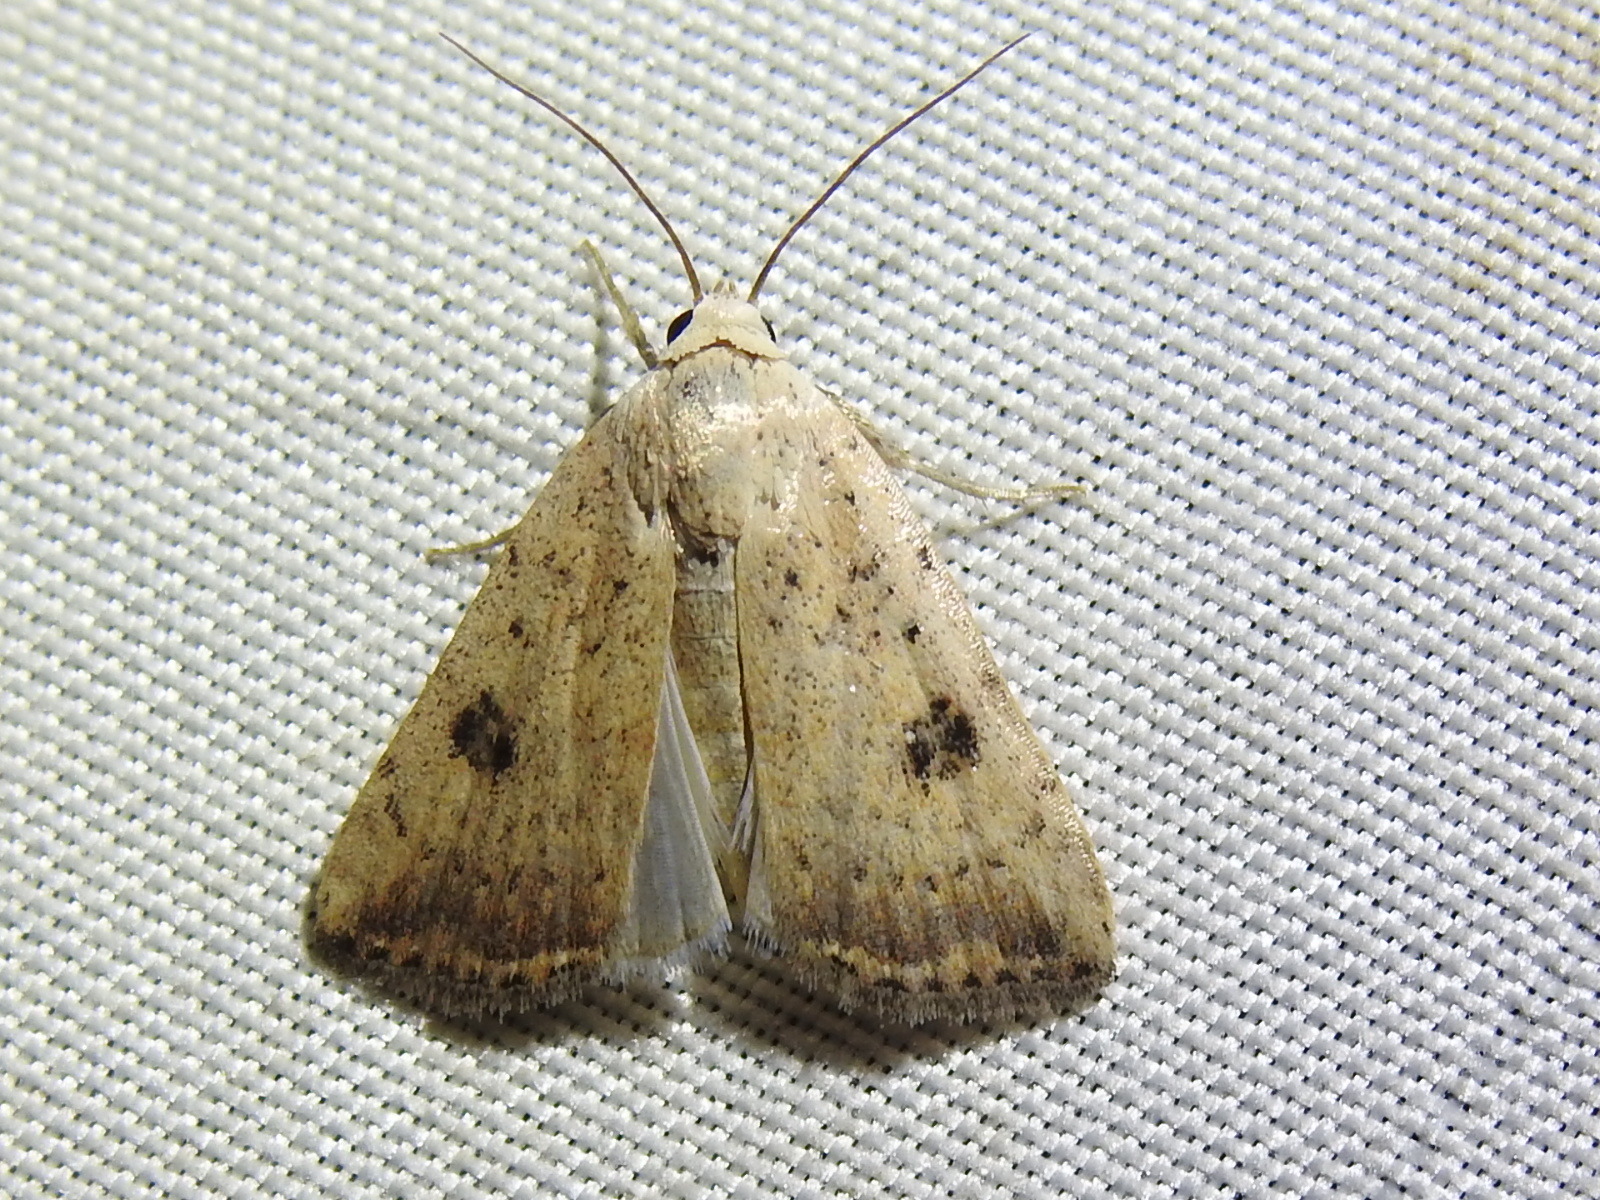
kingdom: Animalia
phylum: Arthropoda
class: Insecta
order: Lepidoptera
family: Noctuidae
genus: Micrathetis
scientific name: Micrathetis triplex
